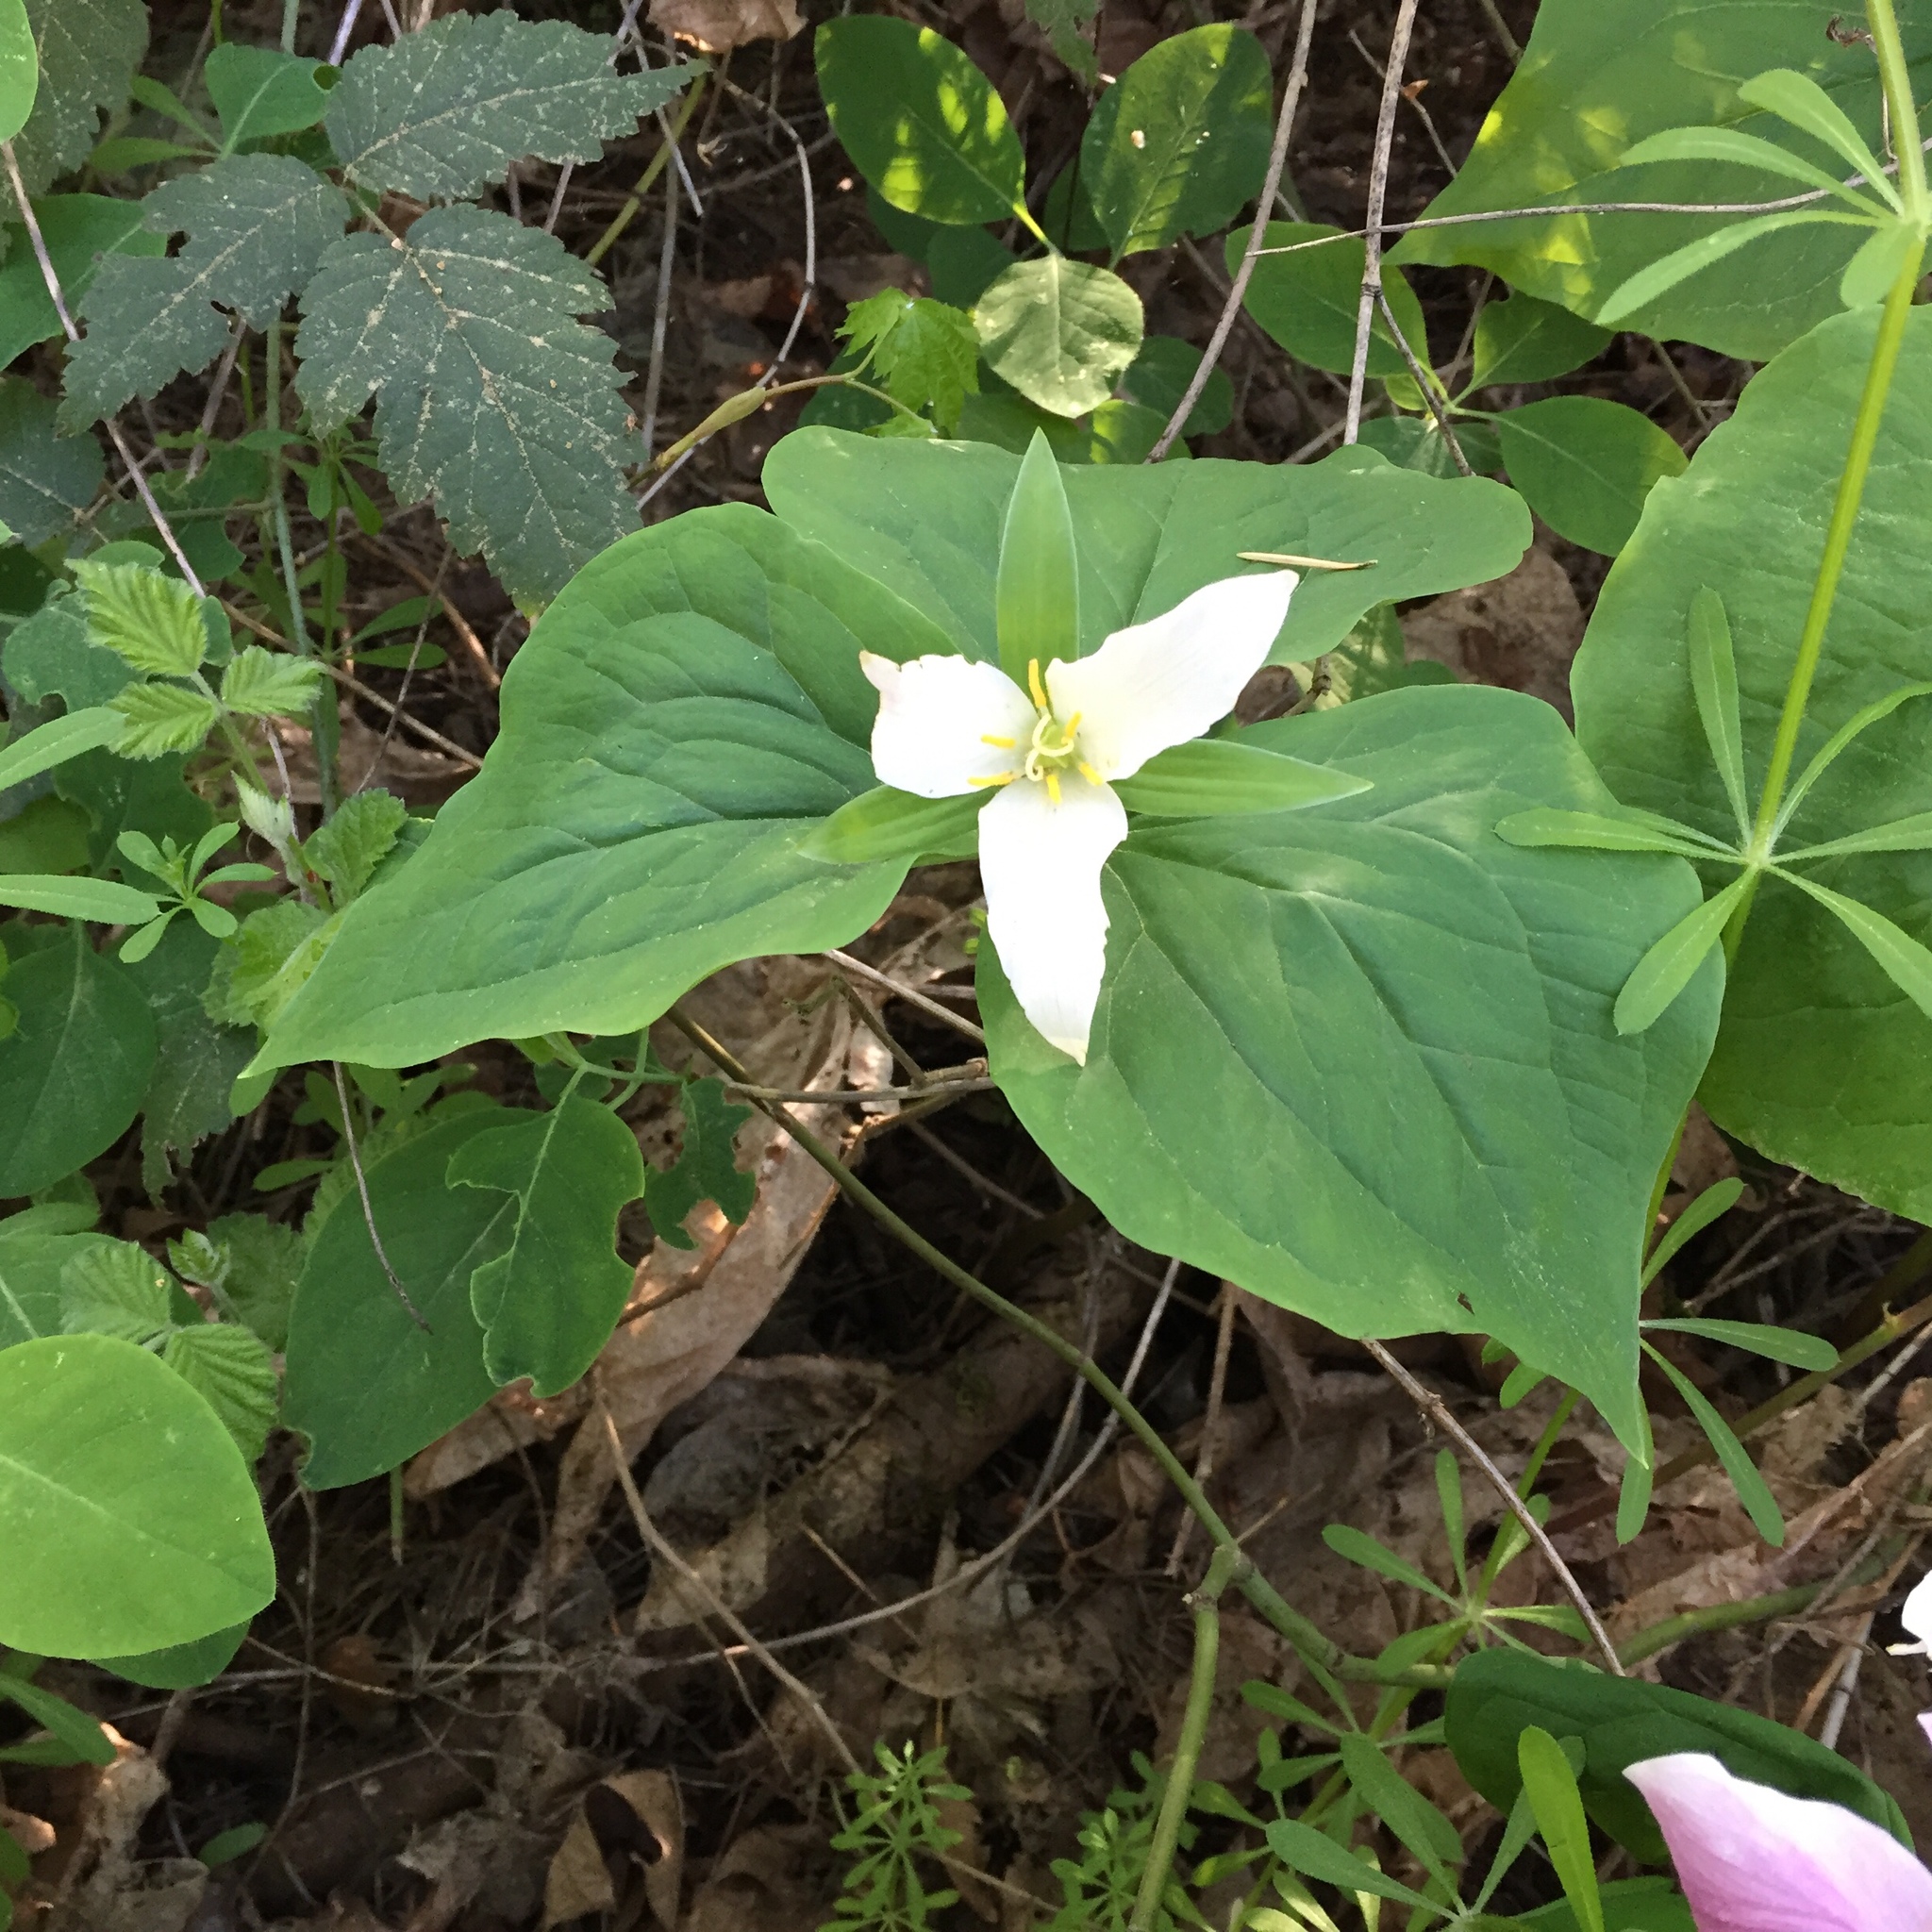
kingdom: Plantae
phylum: Tracheophyta
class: Liliopsida
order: Liliales
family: Melanthiaceae
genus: Trillium
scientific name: Trillium ovatum
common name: Pacific trillium
